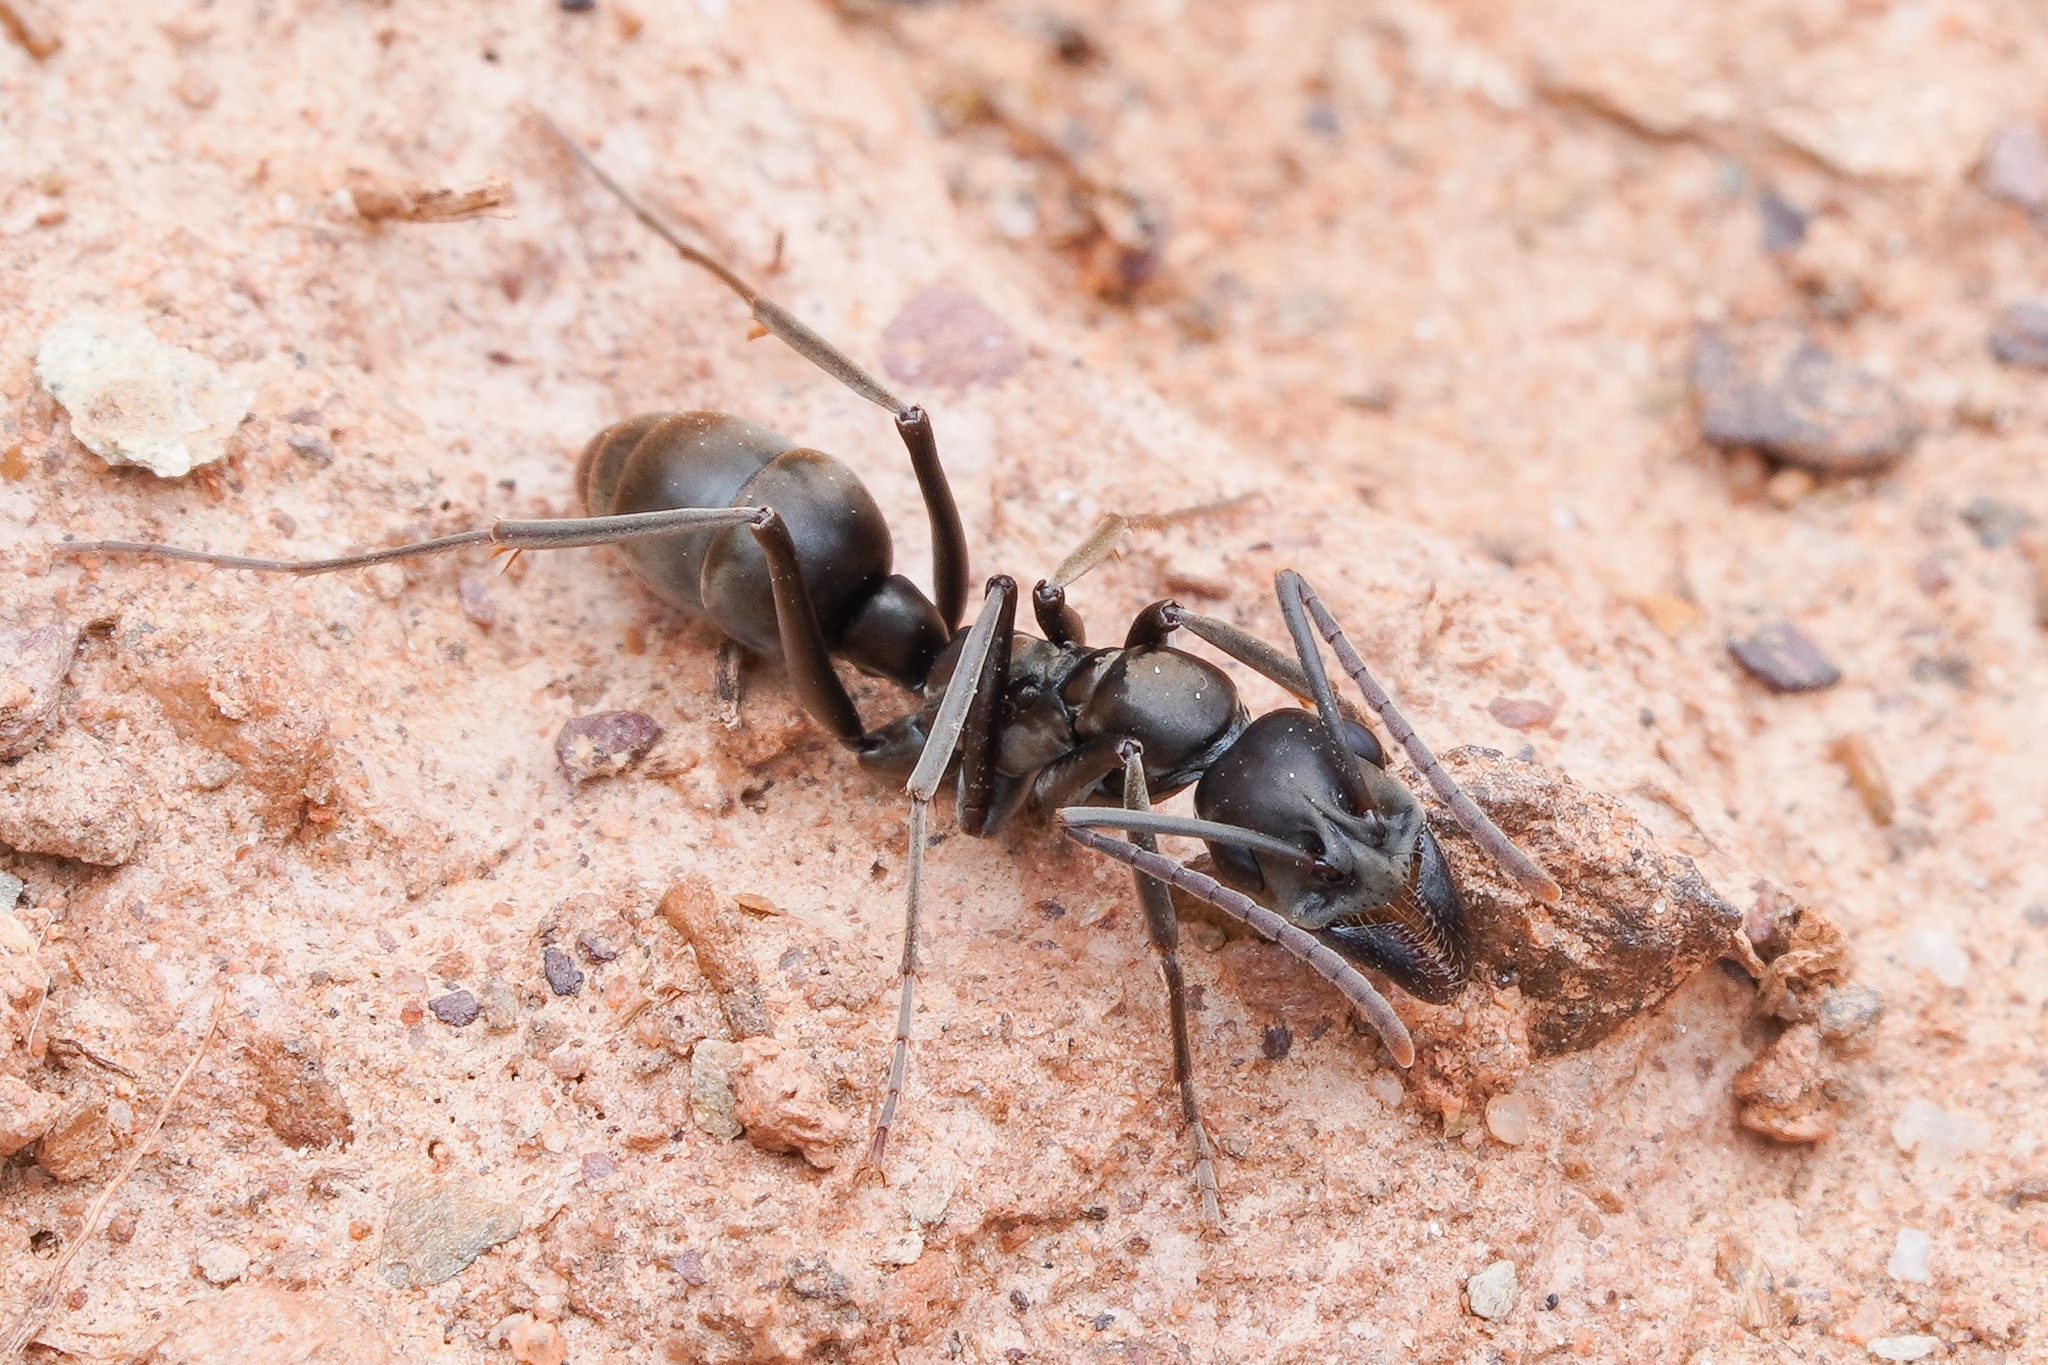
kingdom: Animalia
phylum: Arthropoda
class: Insecta
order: Hymenoptera
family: Formicidae
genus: Ophthalmopone
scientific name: Ophthalmopone
